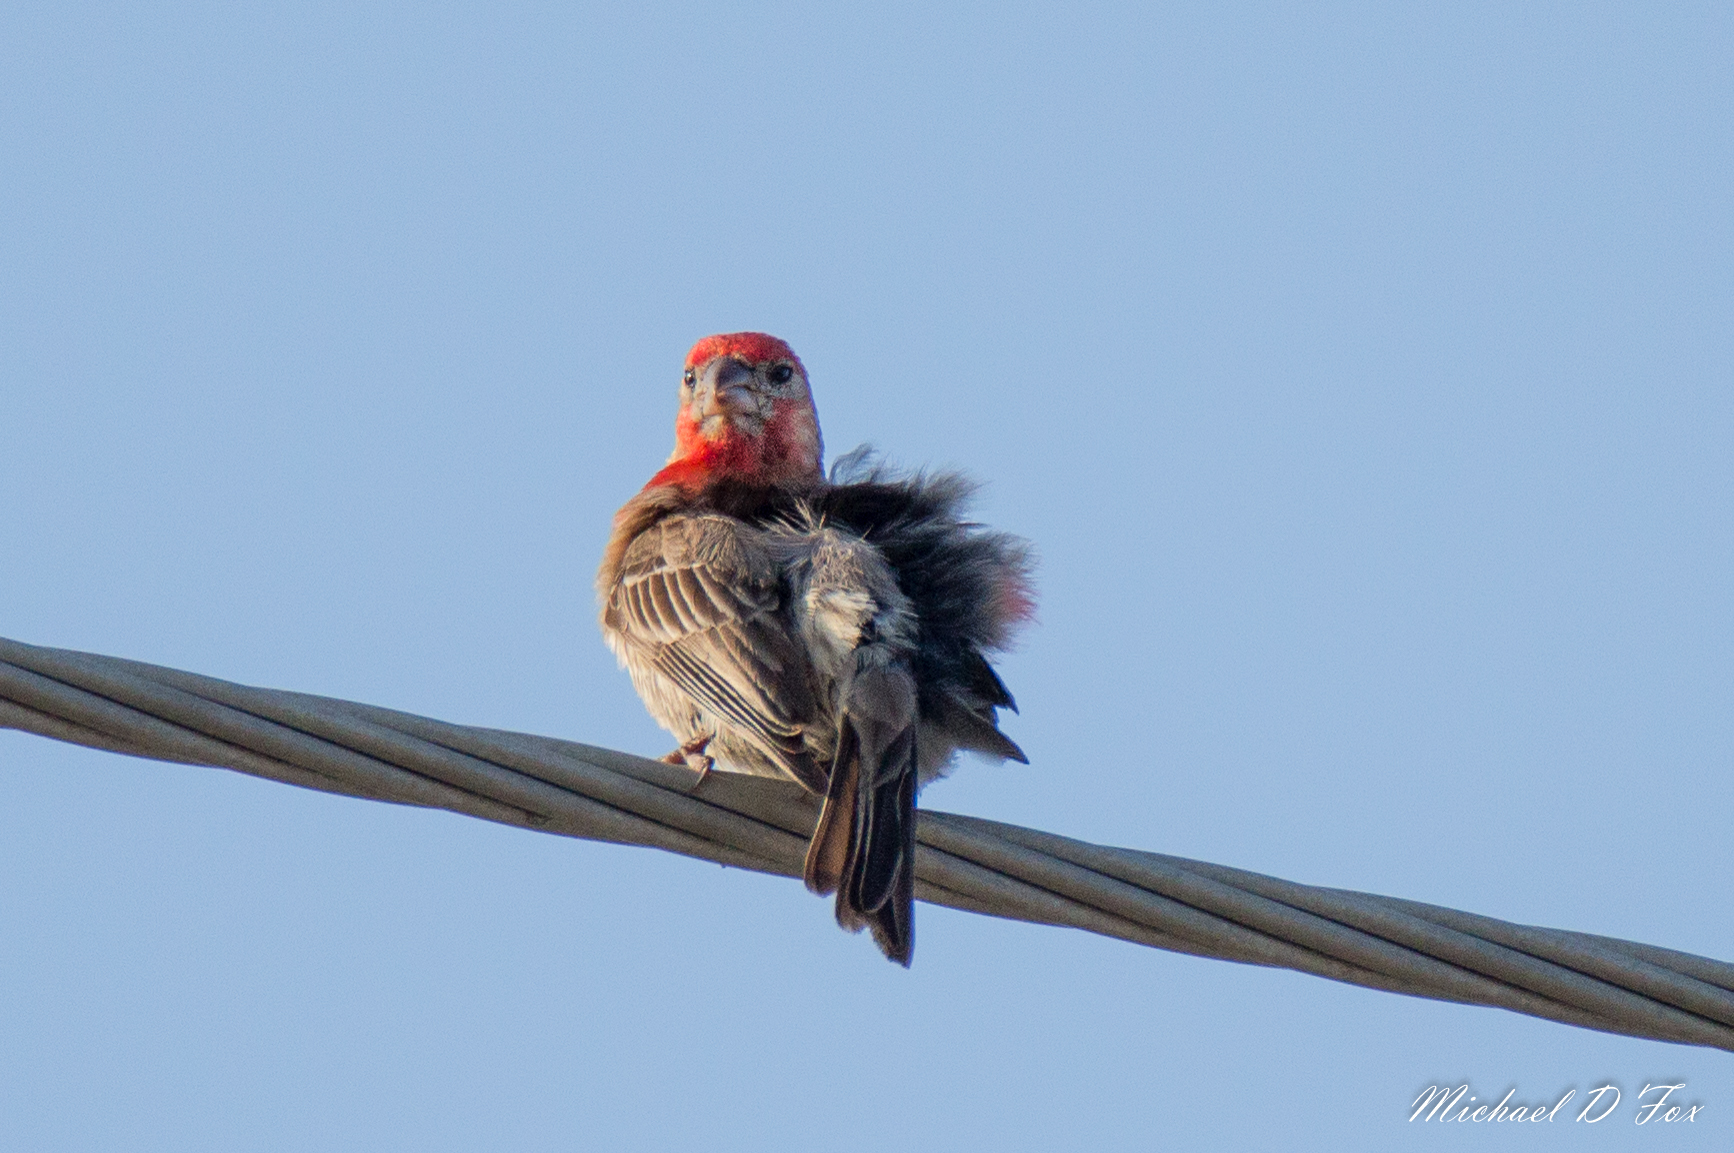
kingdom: Animalia
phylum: Chordata
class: Aves
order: Passeriformes
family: Fringillidae
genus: Haemorhous
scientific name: Haemorhous mexicanus
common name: House finch
